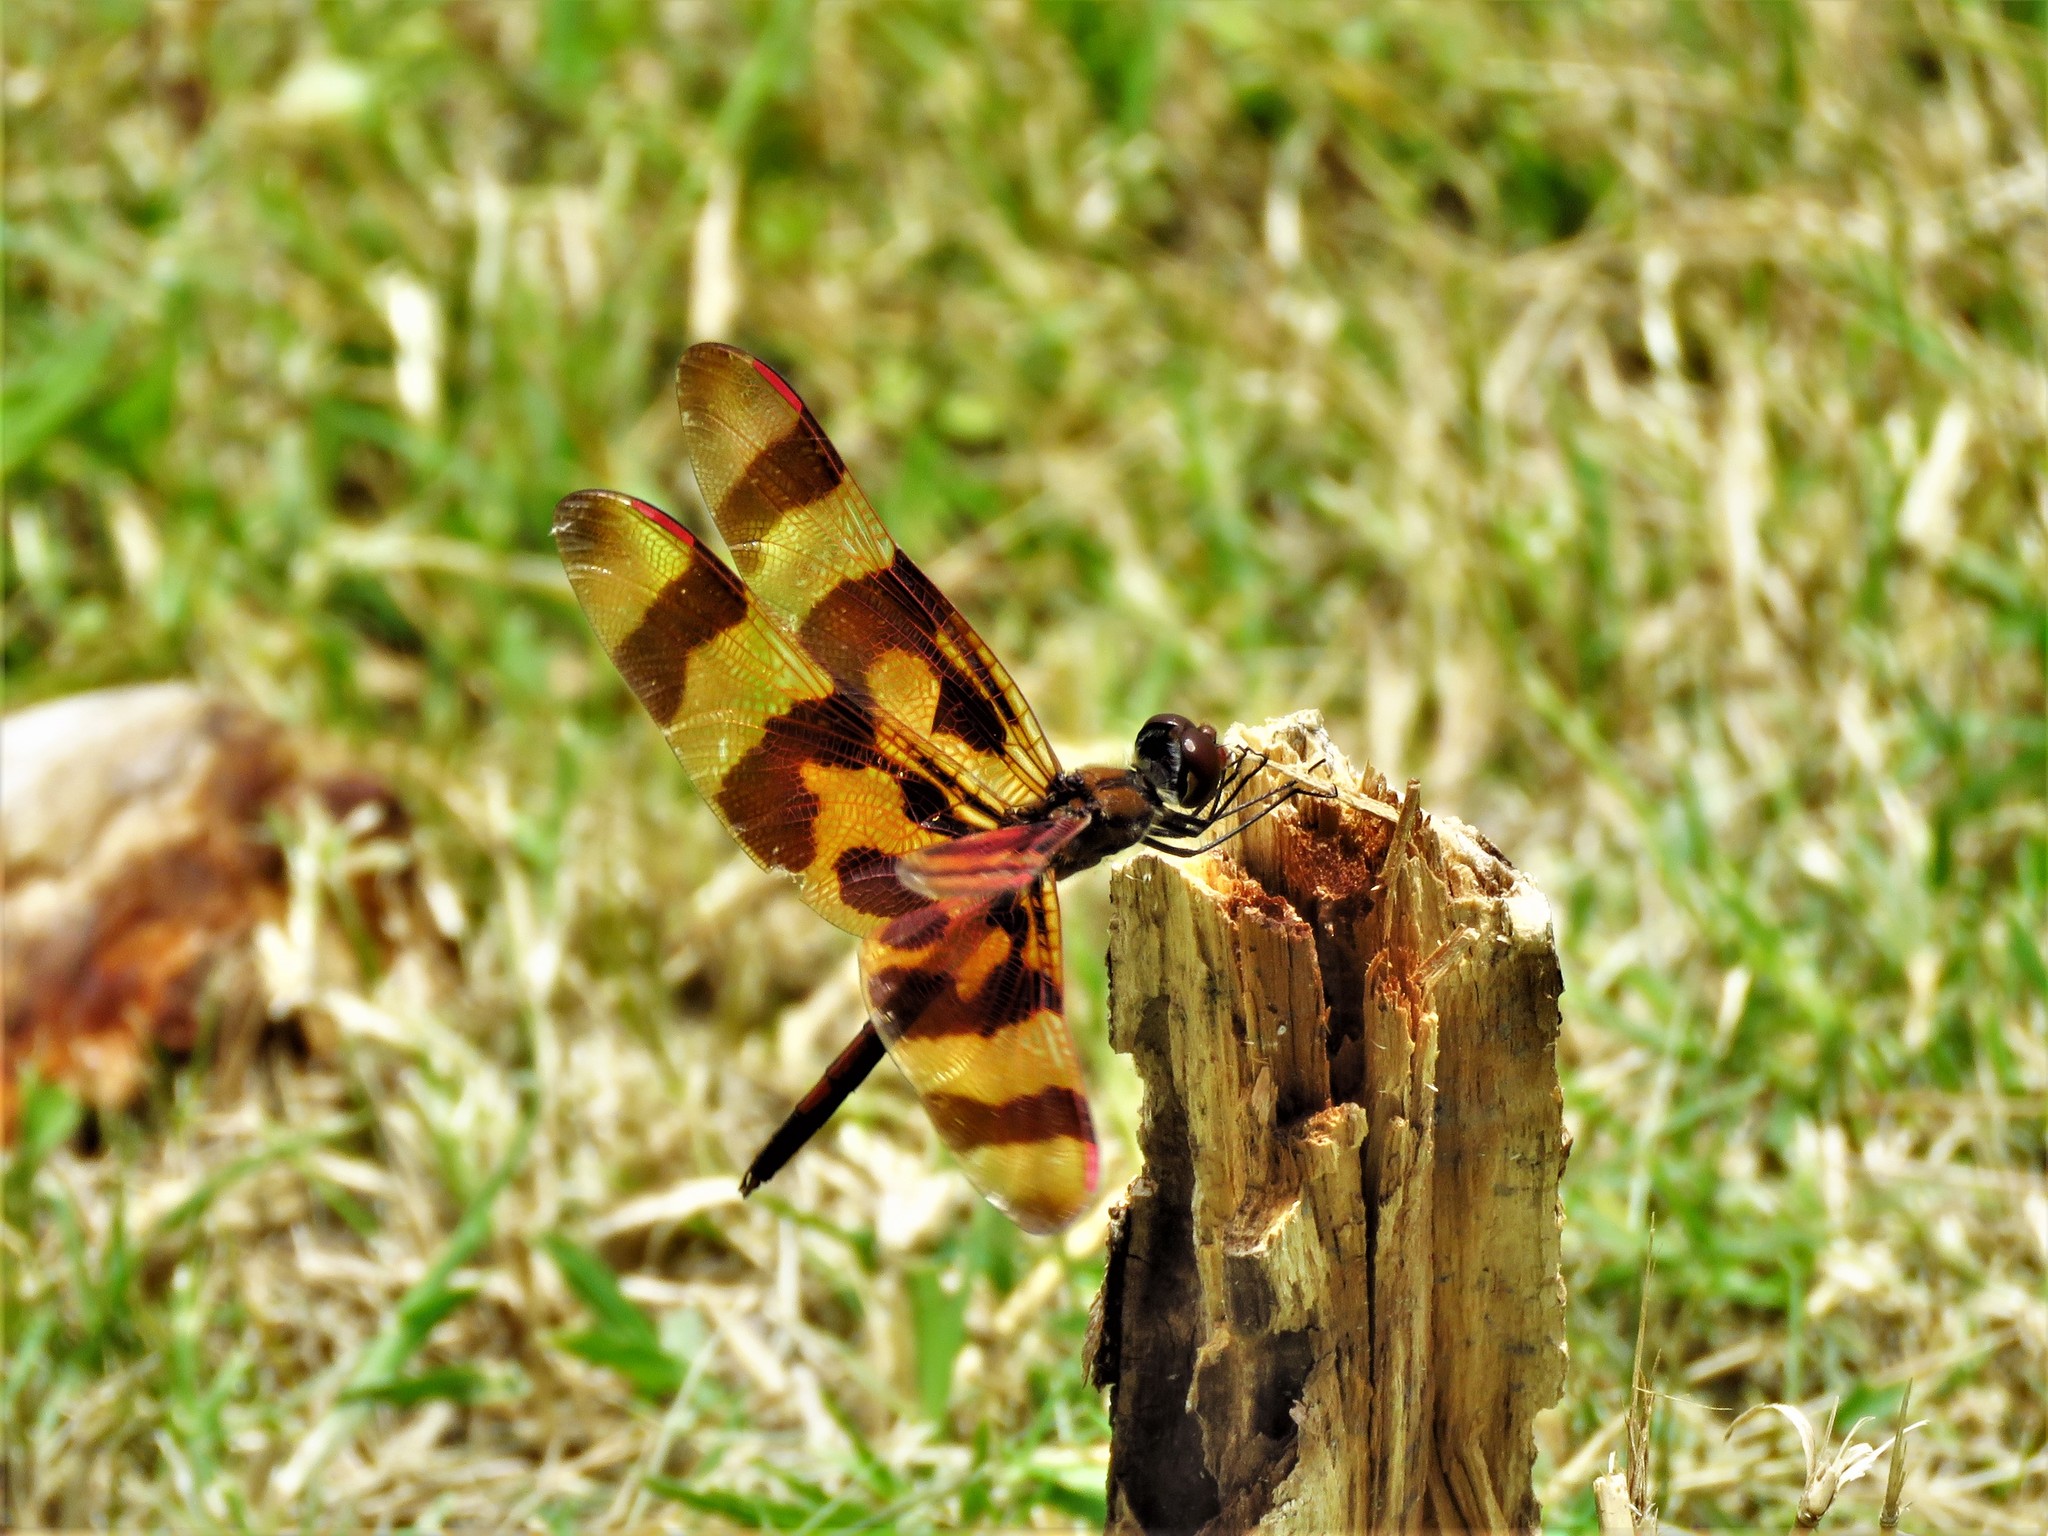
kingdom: Animalia
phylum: Arthropoda
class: Insecta
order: Odonata
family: Libellulidae
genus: Celithemis
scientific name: Celithemis eponina
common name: Halloween pennant
